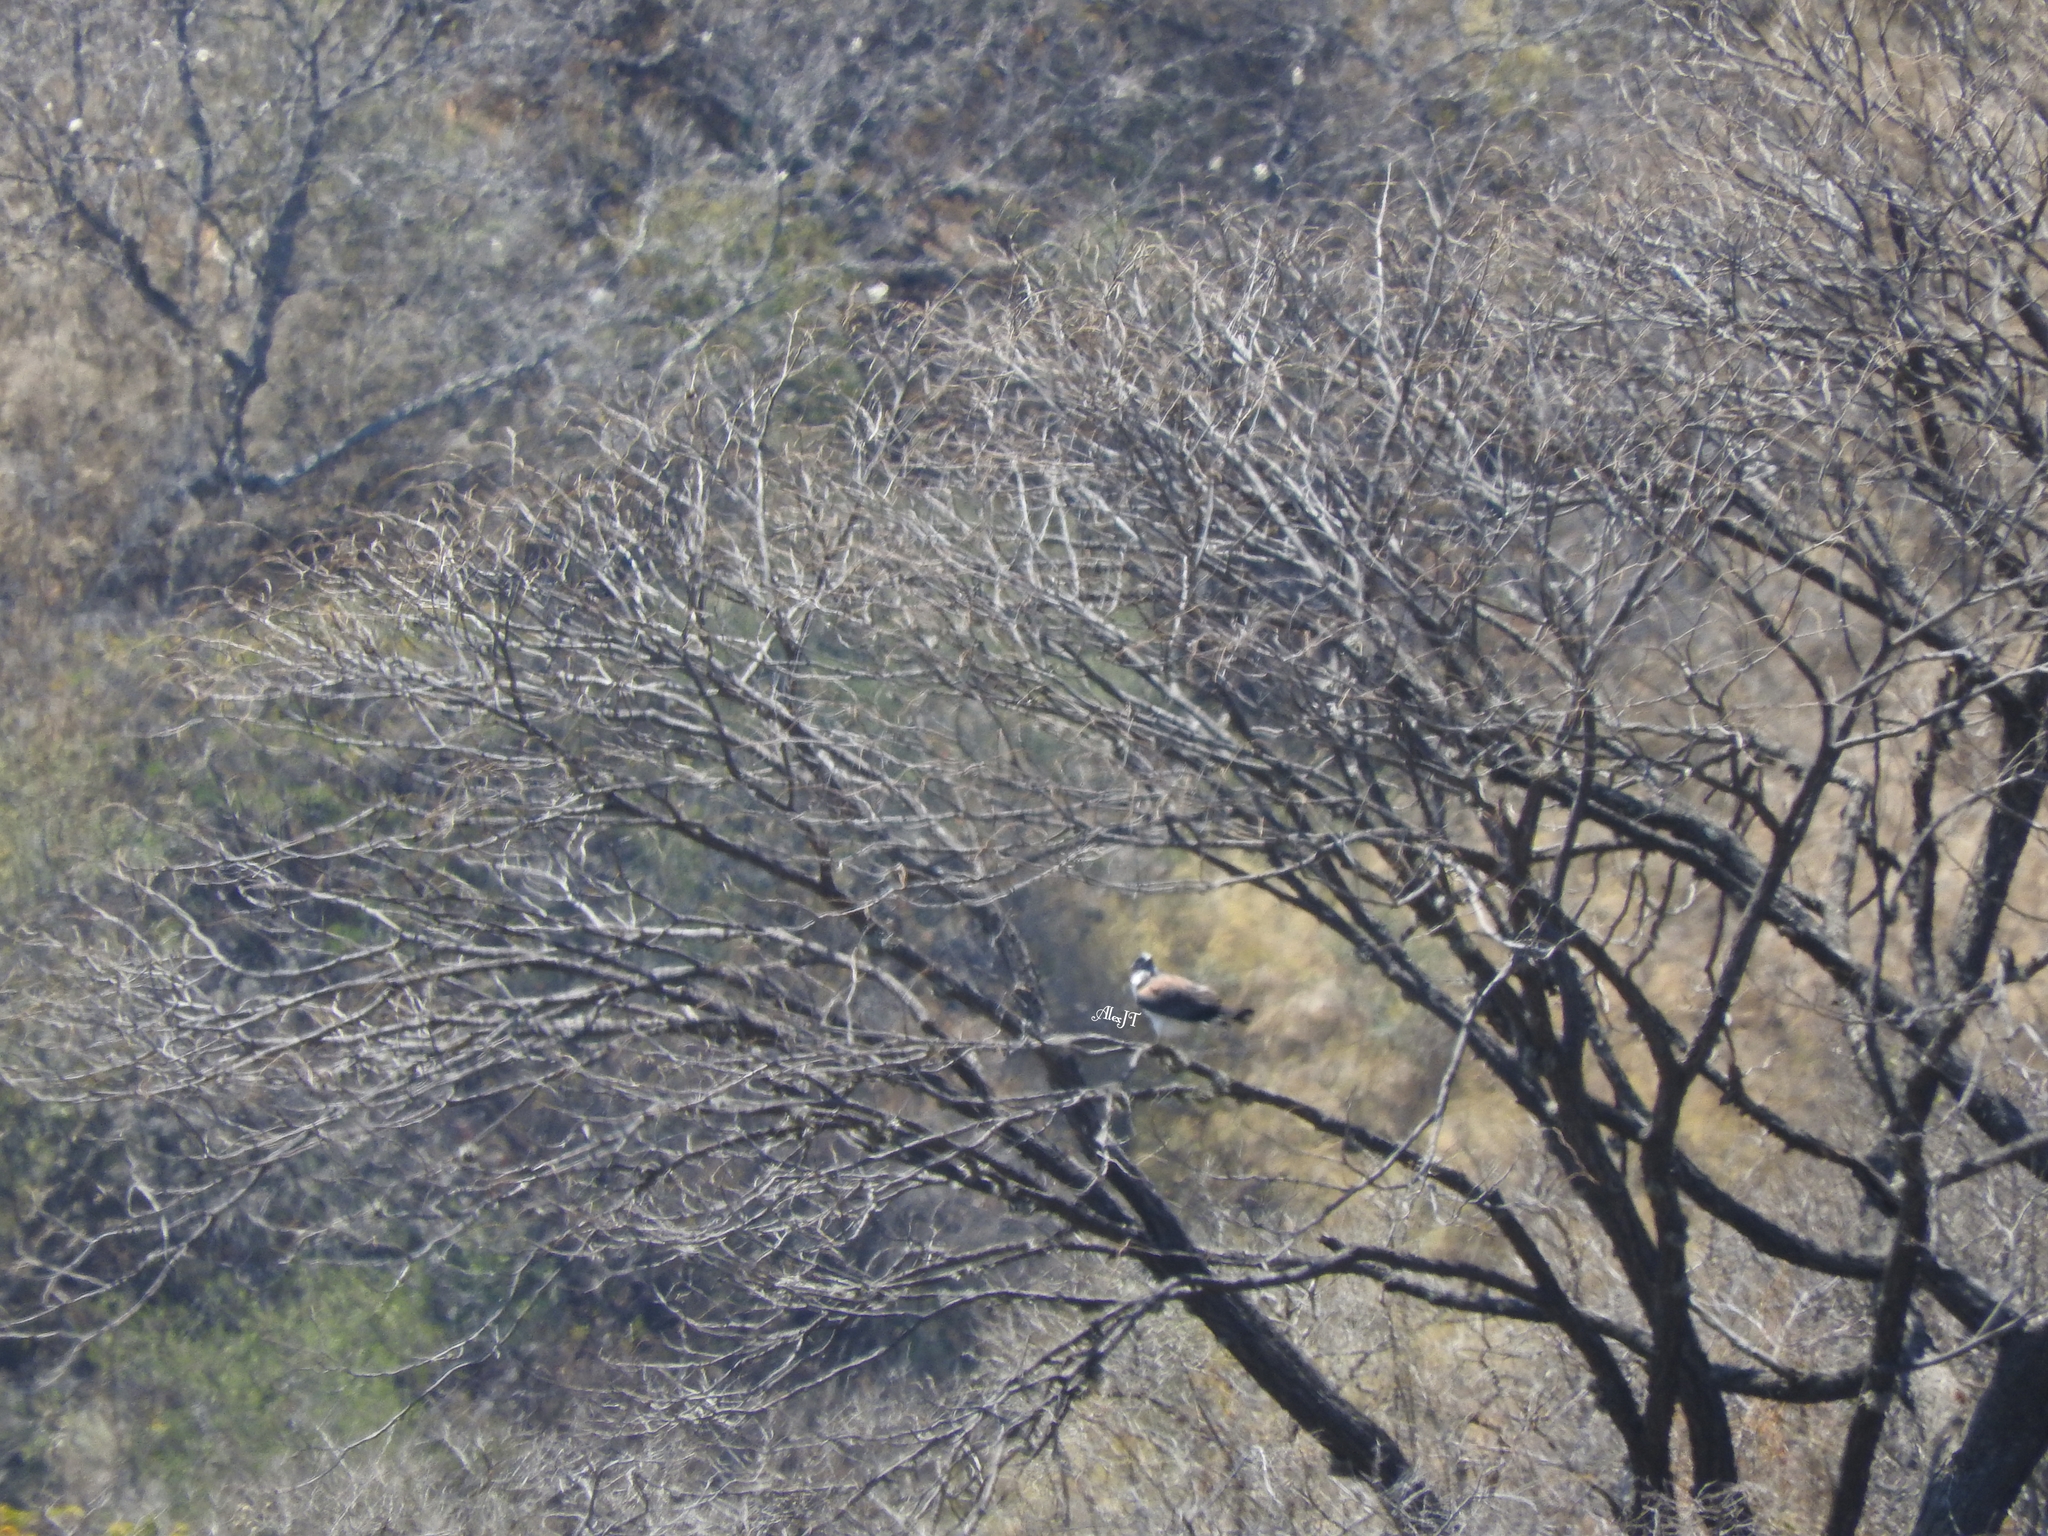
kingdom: Animalia
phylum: Chordata
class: Aves
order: Accipitriformes
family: Pandionidae
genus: Pandion
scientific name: Pandion haliaetus
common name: Osprey
